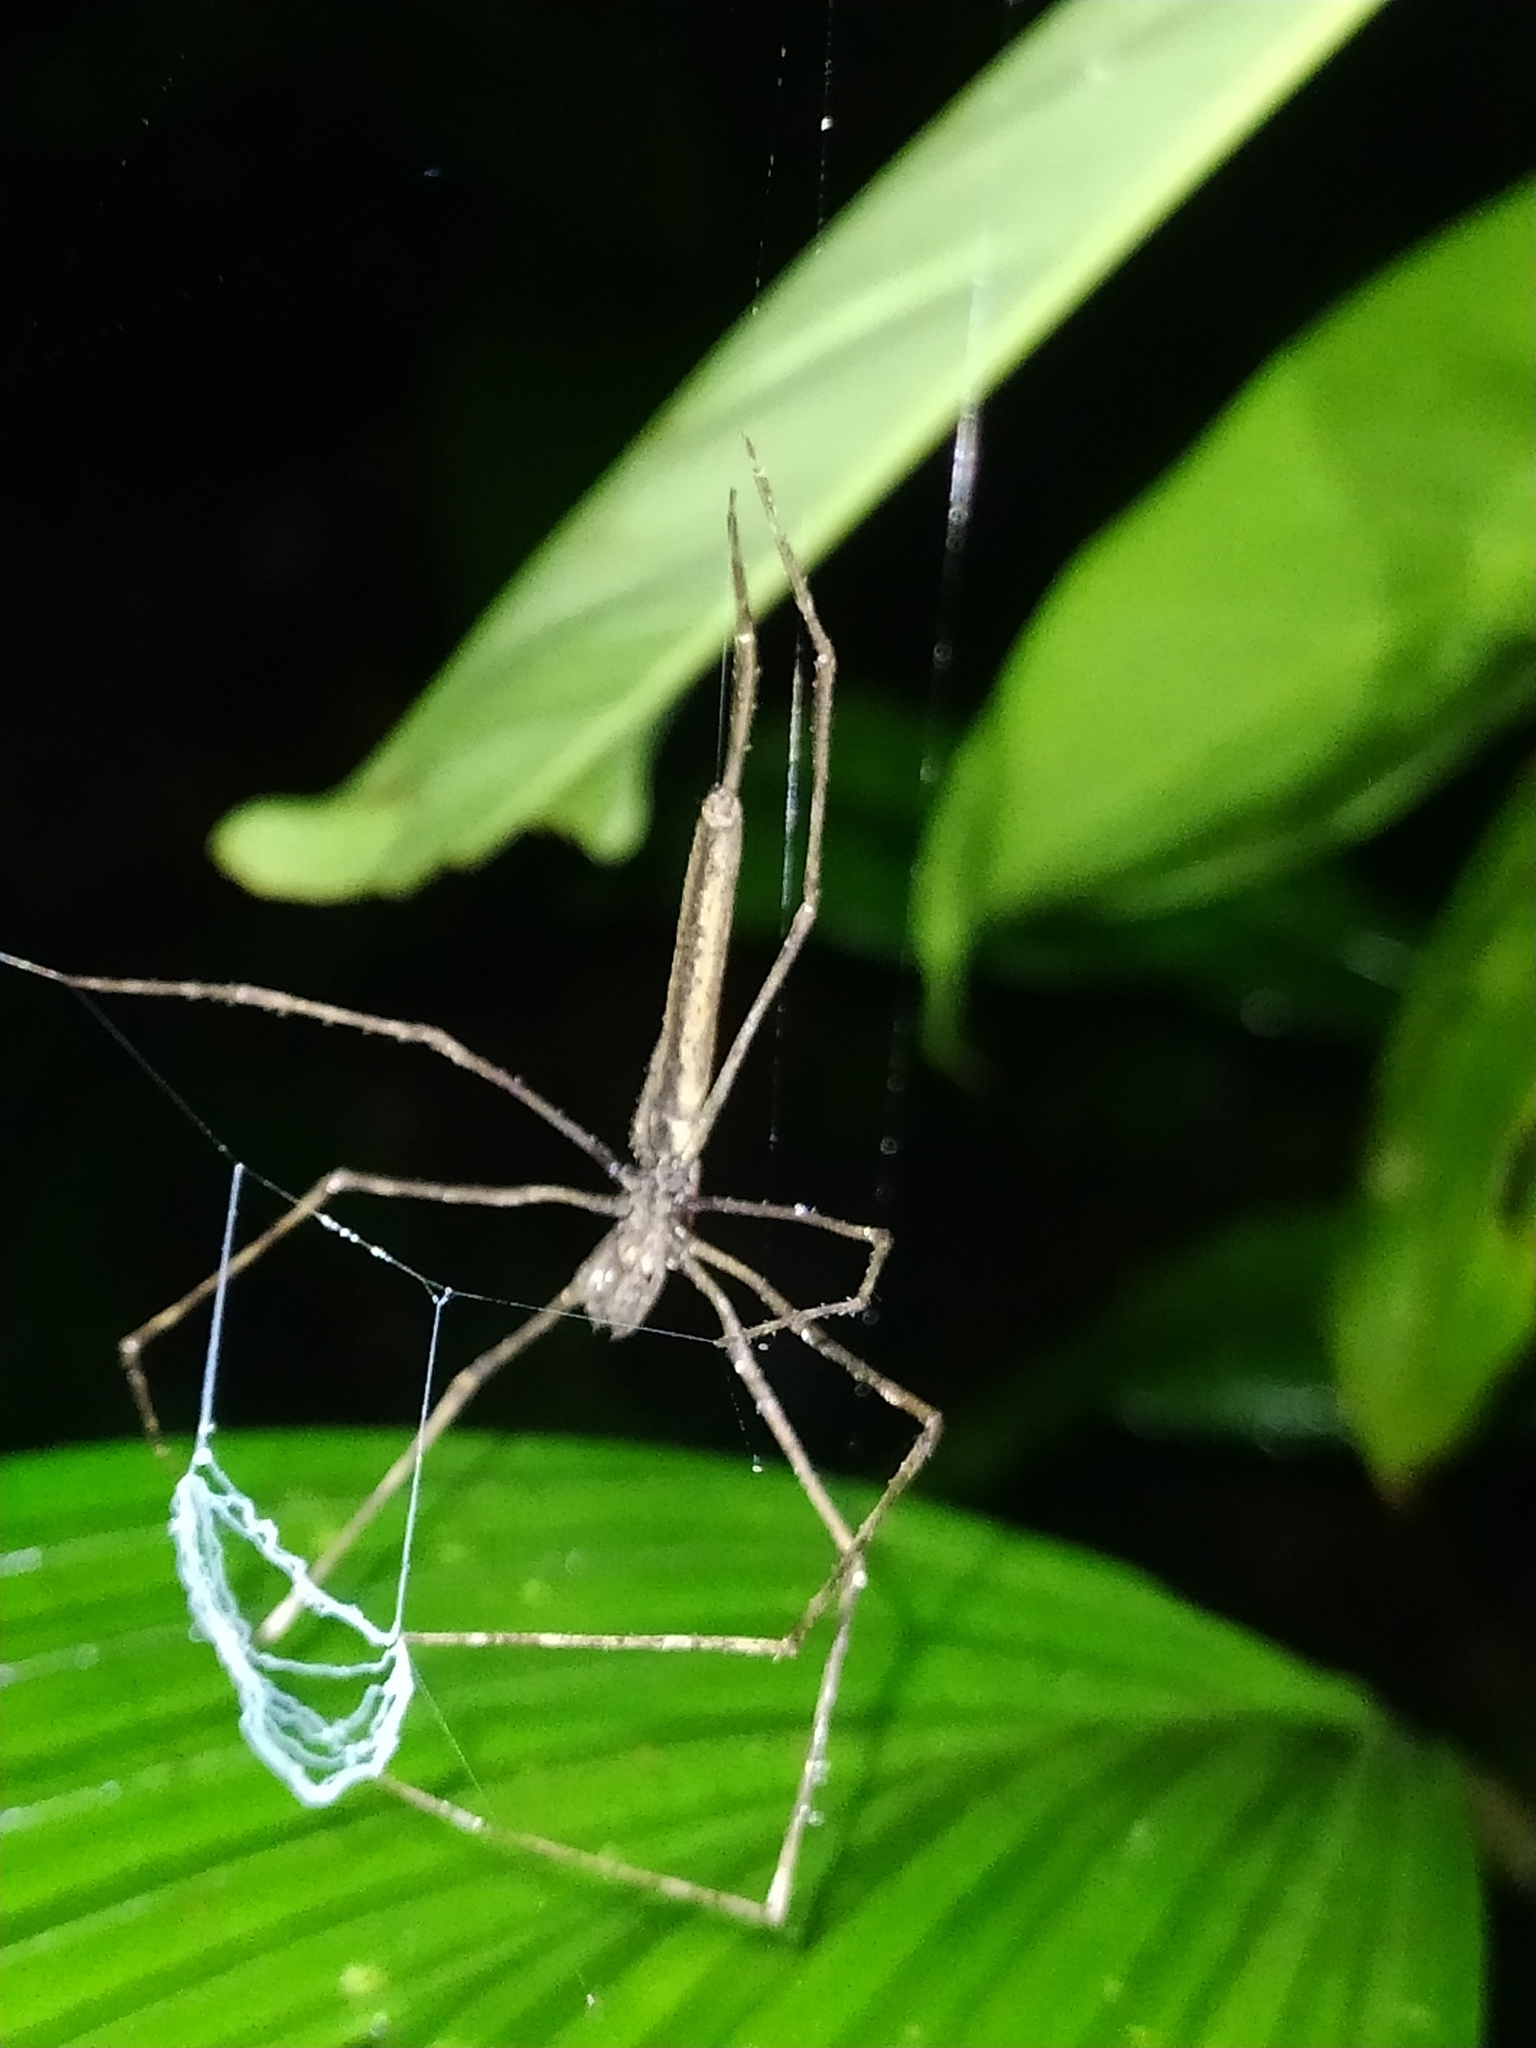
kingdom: Animalia
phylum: Arthropoda
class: Arachnida
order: Araneae
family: Deinopidae
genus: Deinopis
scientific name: Deinopis
